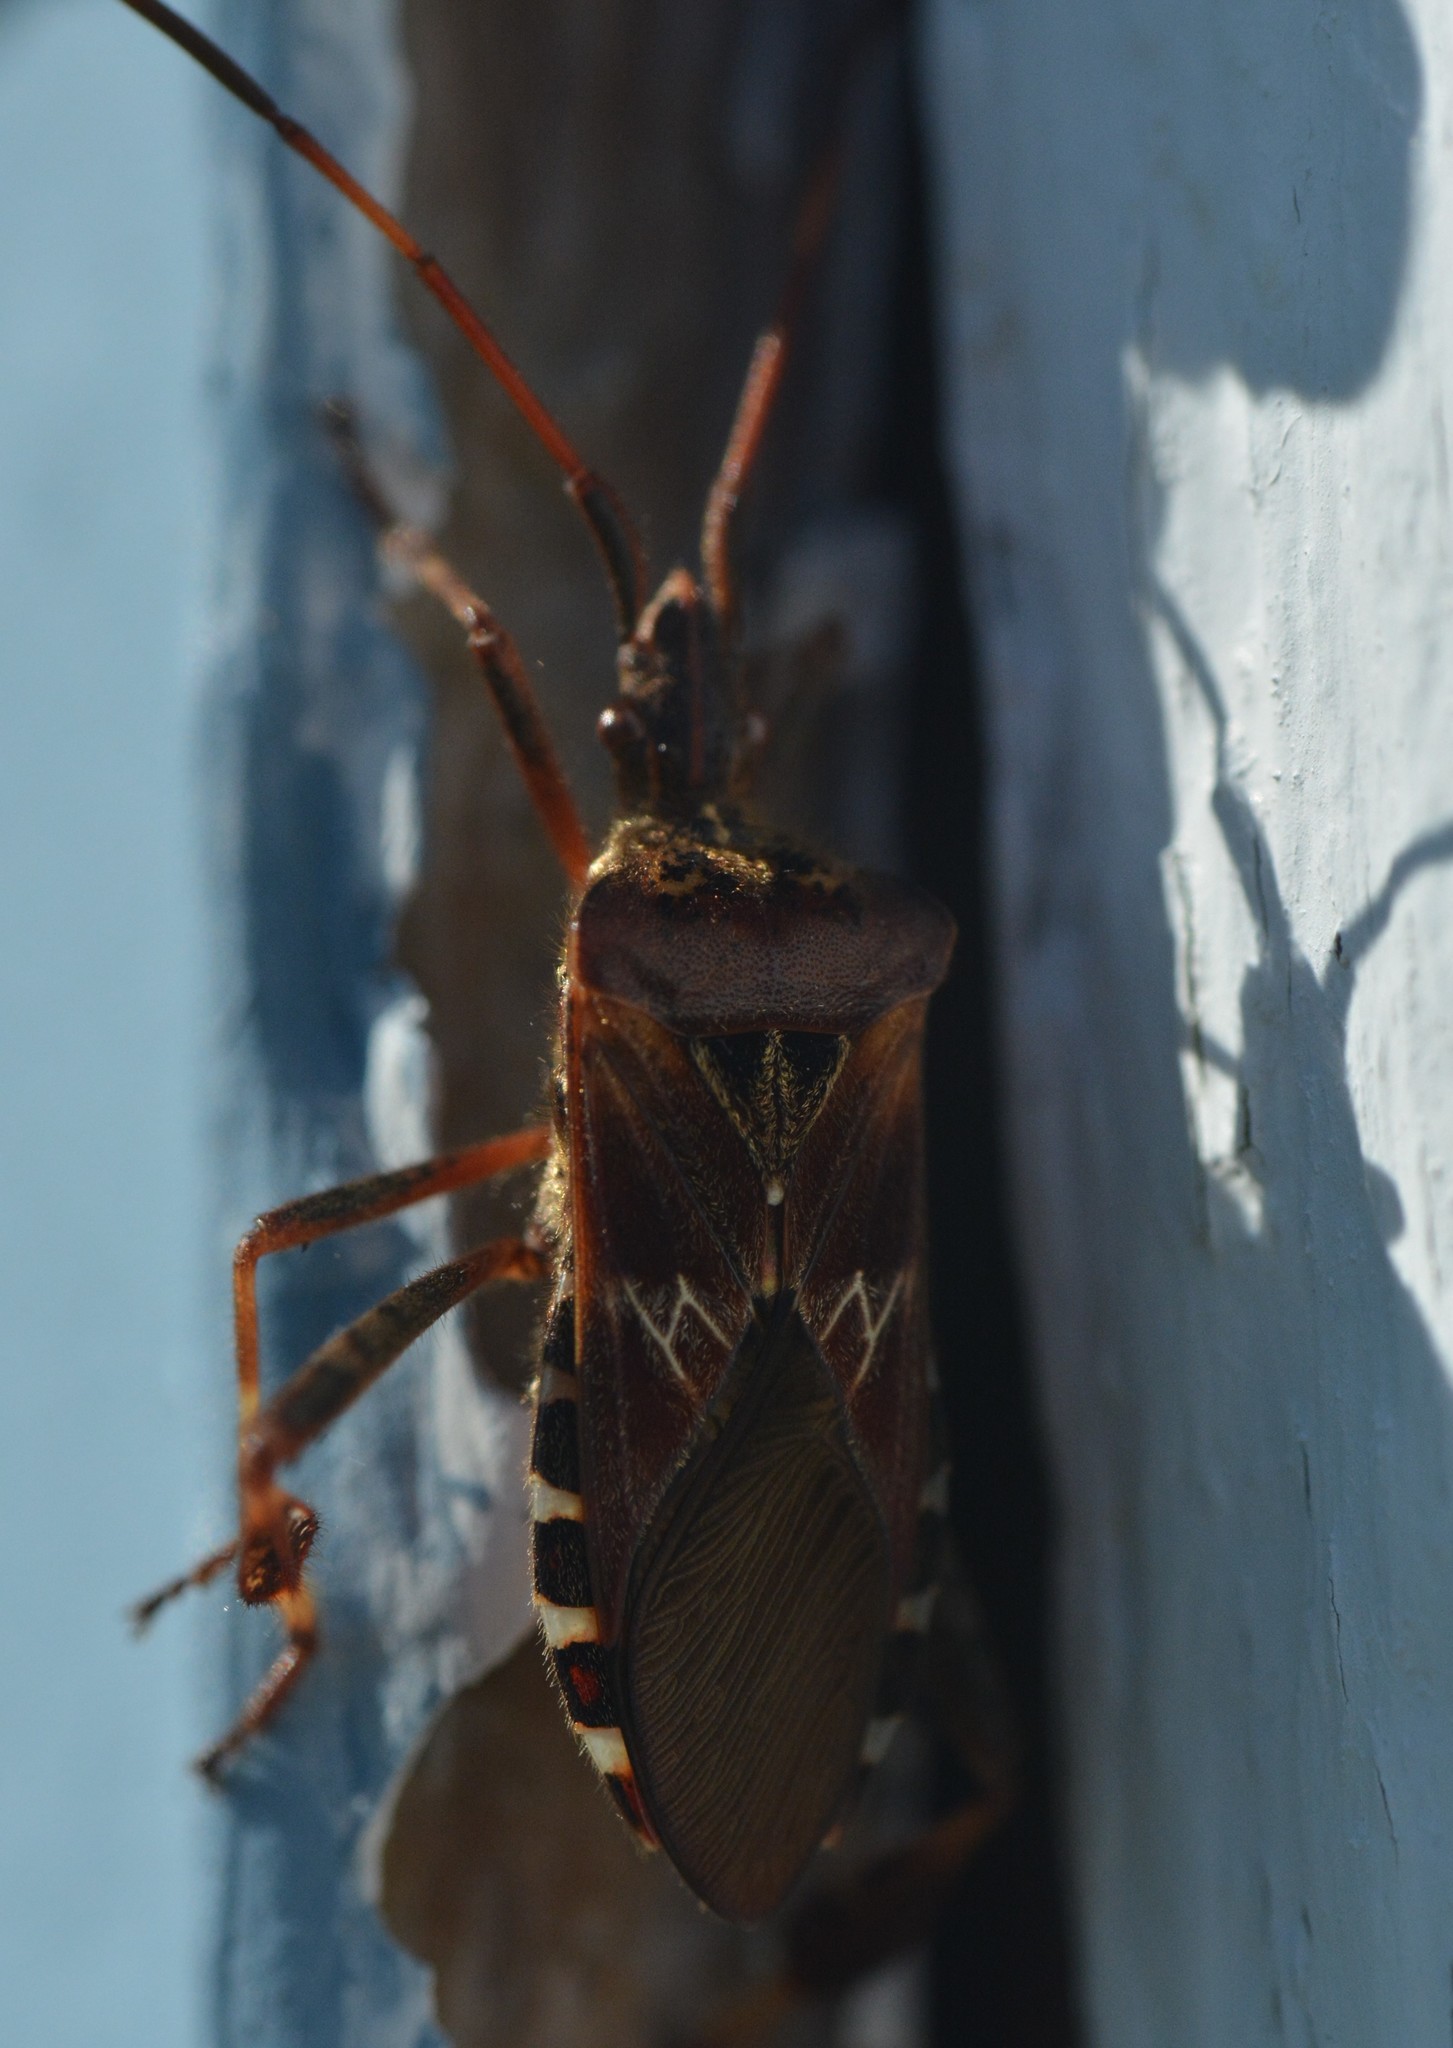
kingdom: Animalia
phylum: Arthropoda
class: Insecta
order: Hemiptera
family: Coreidae
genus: Leptoglossus
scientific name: Leptoglossus occidentalis
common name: Western conifer-seed bug
